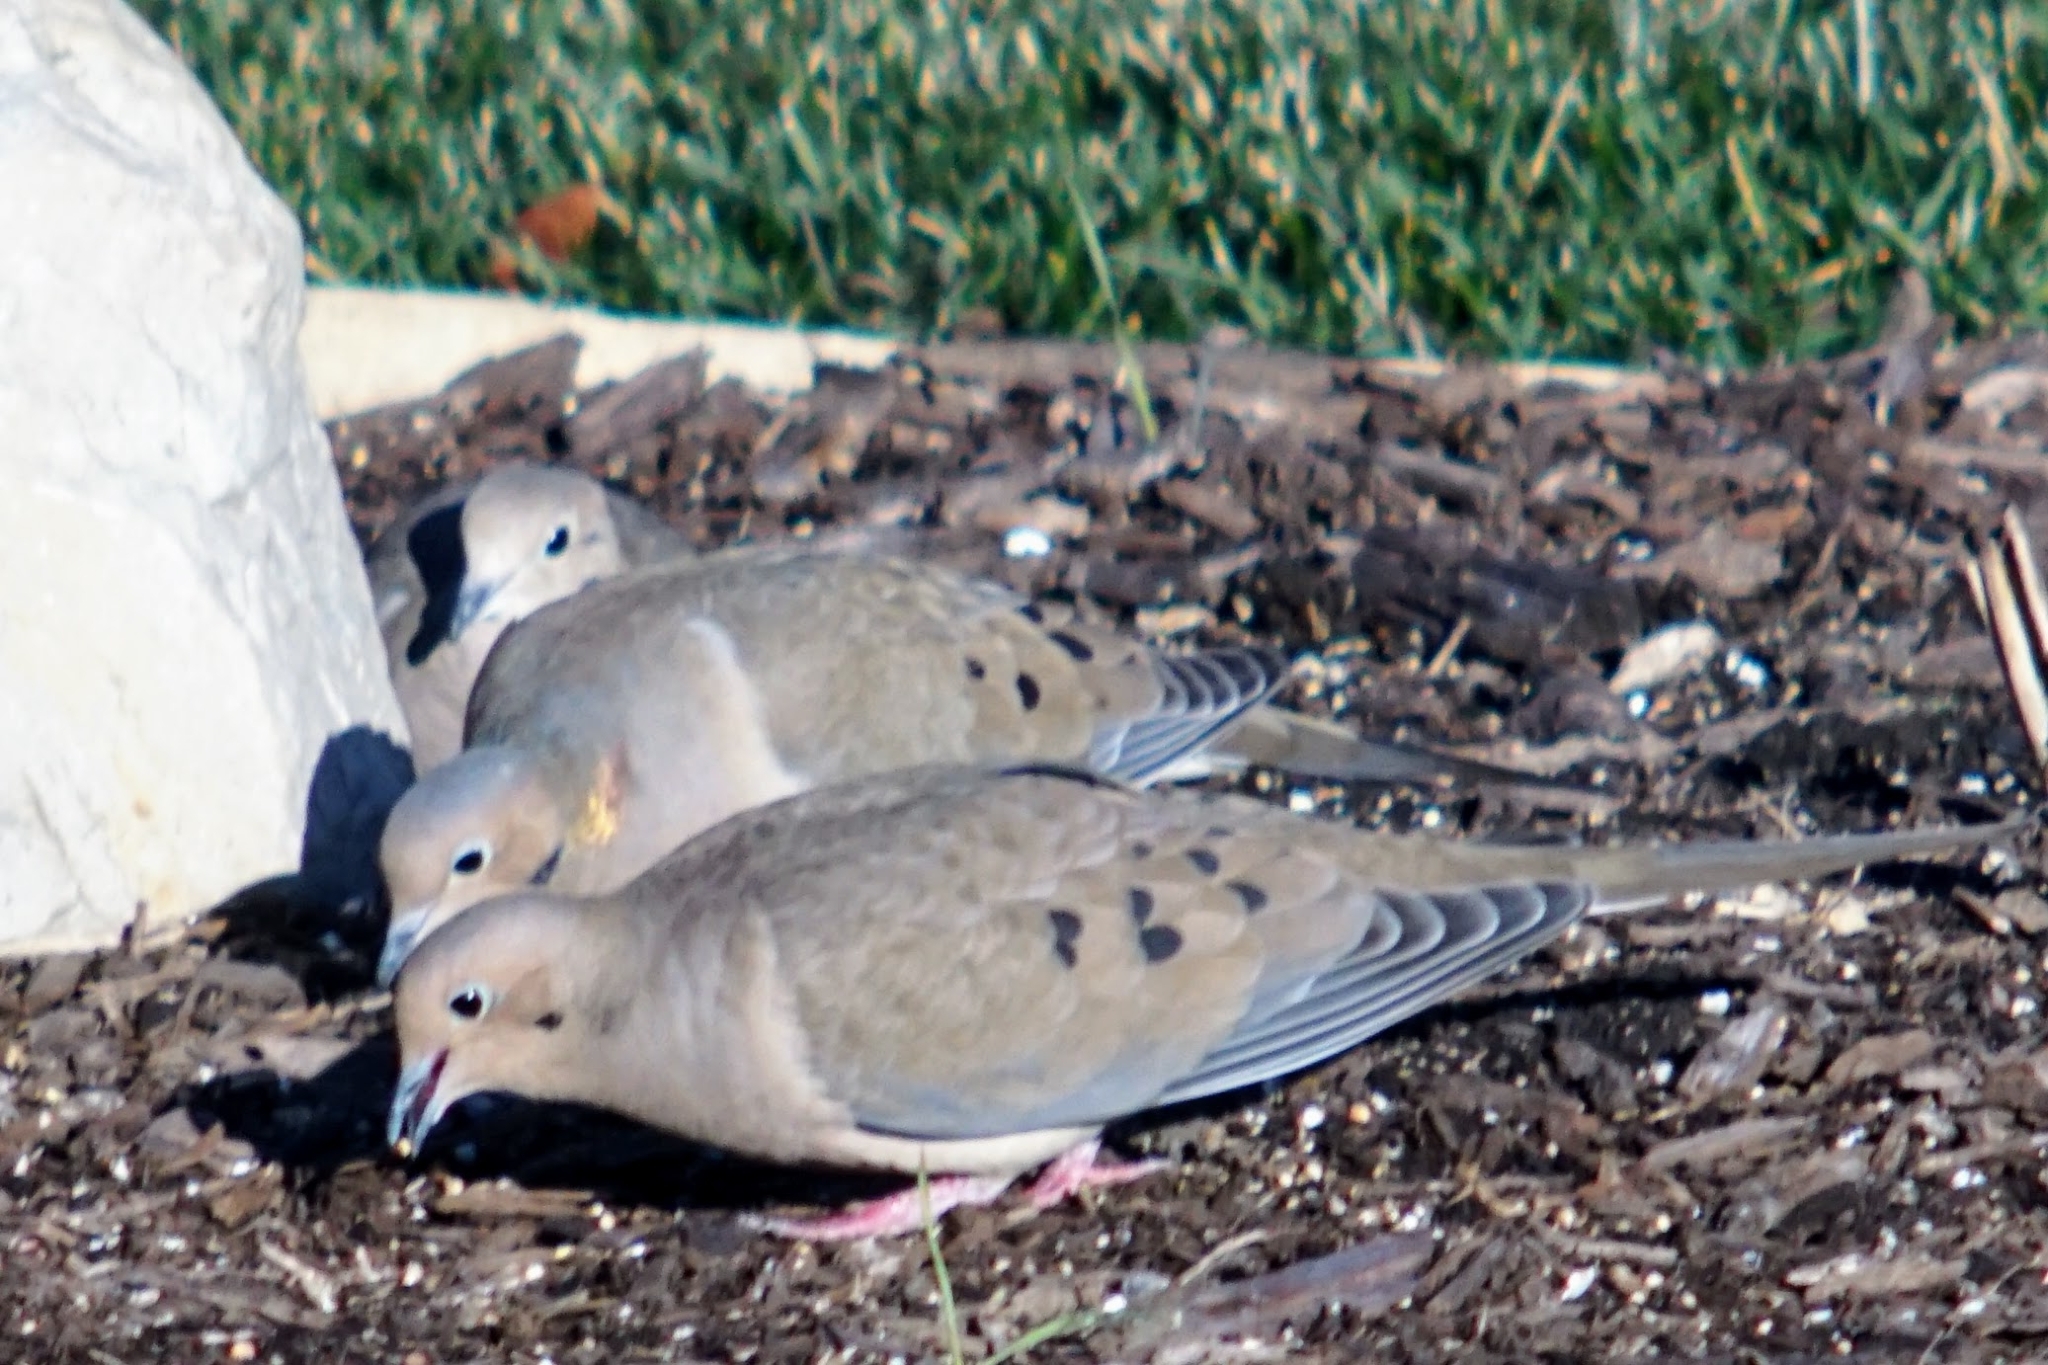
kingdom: Animalia
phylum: Chordata
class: Aves
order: Columbiformes
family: Columbidae
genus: Zenaida
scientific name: Zenaida macroura
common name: Mourning dove
